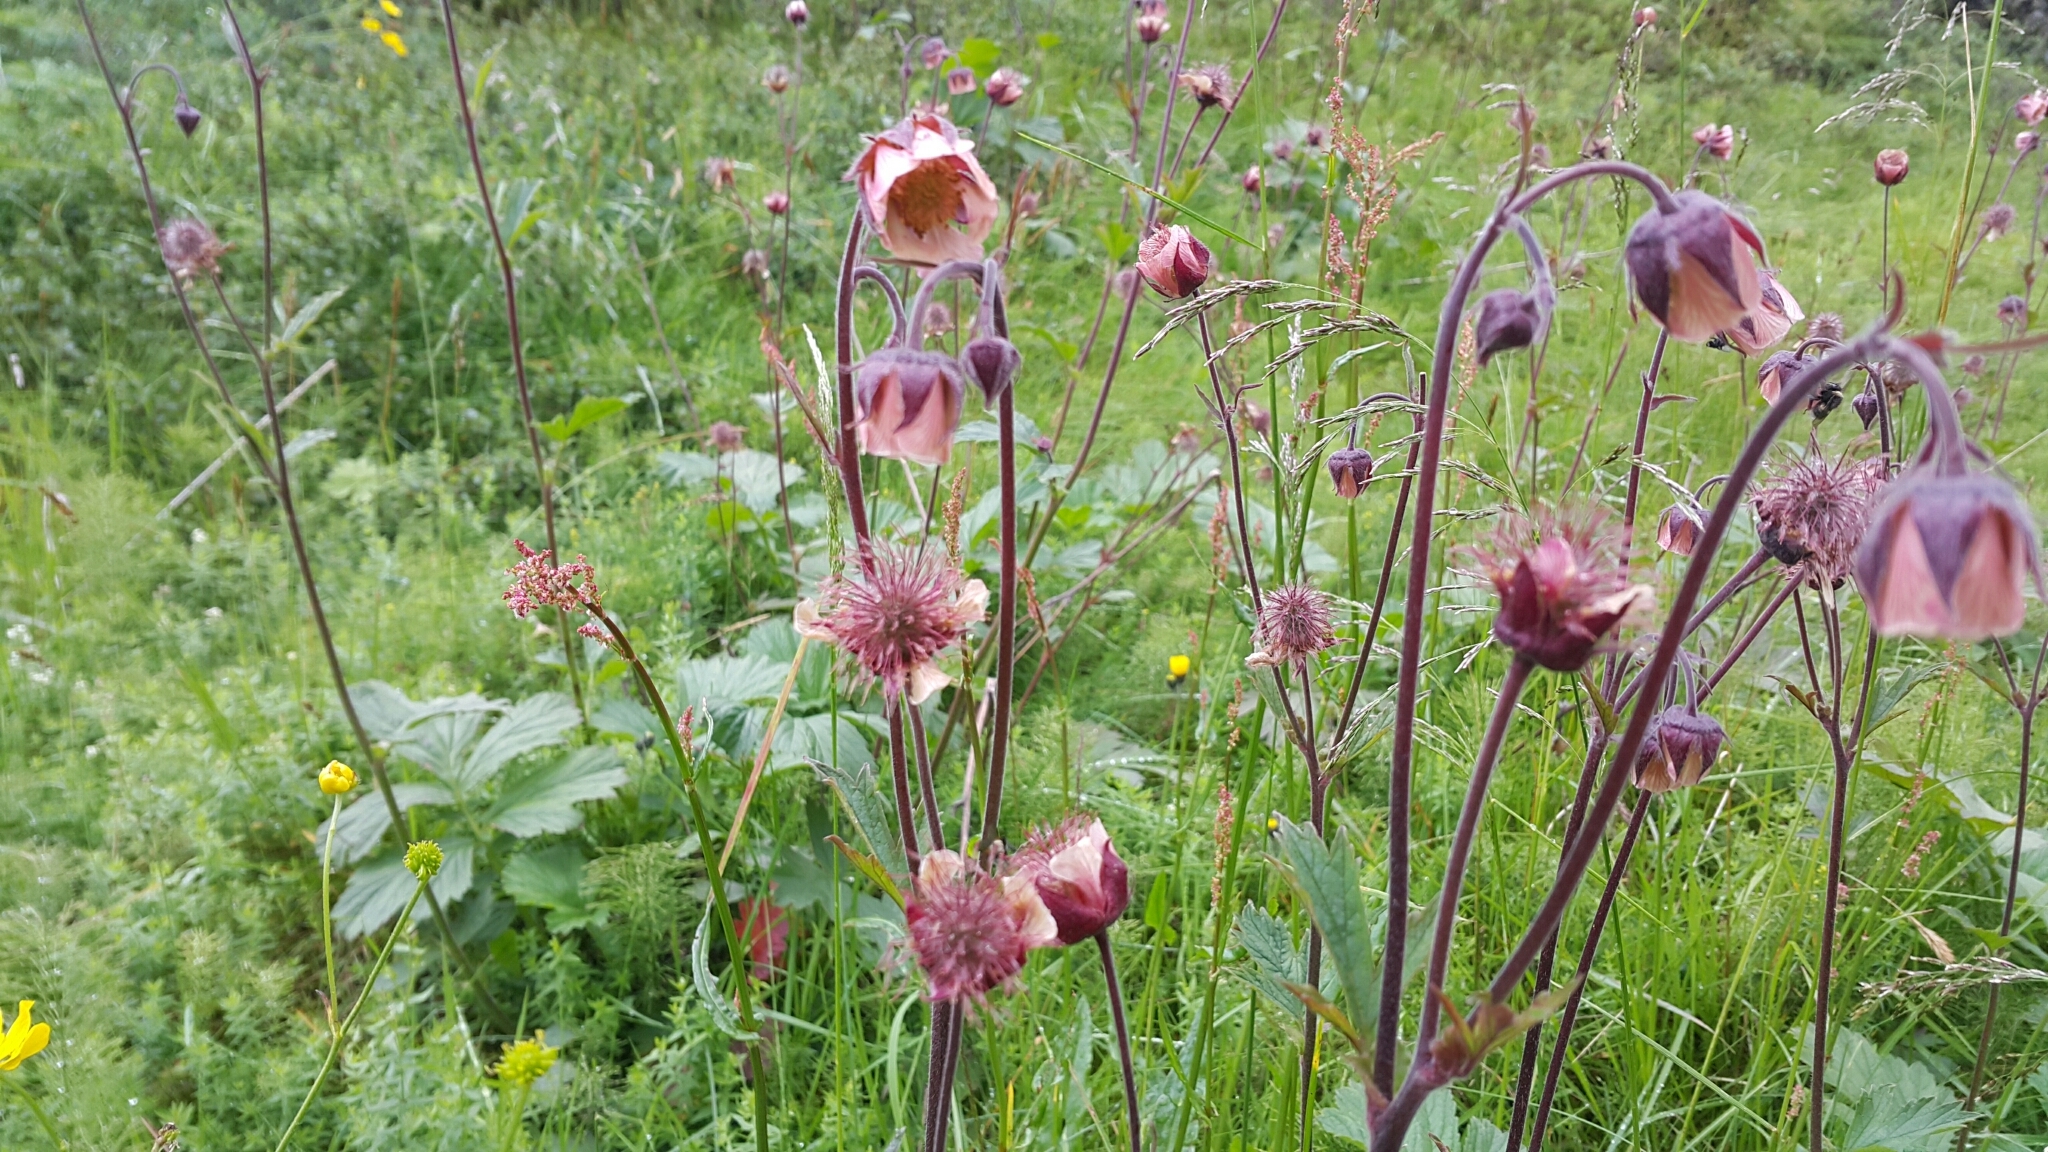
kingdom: Plantae
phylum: Tracheophyta
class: Magnoliopsida
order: Rosales
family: Rosaceae
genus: Geum
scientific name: Geum rivale
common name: Water avens
